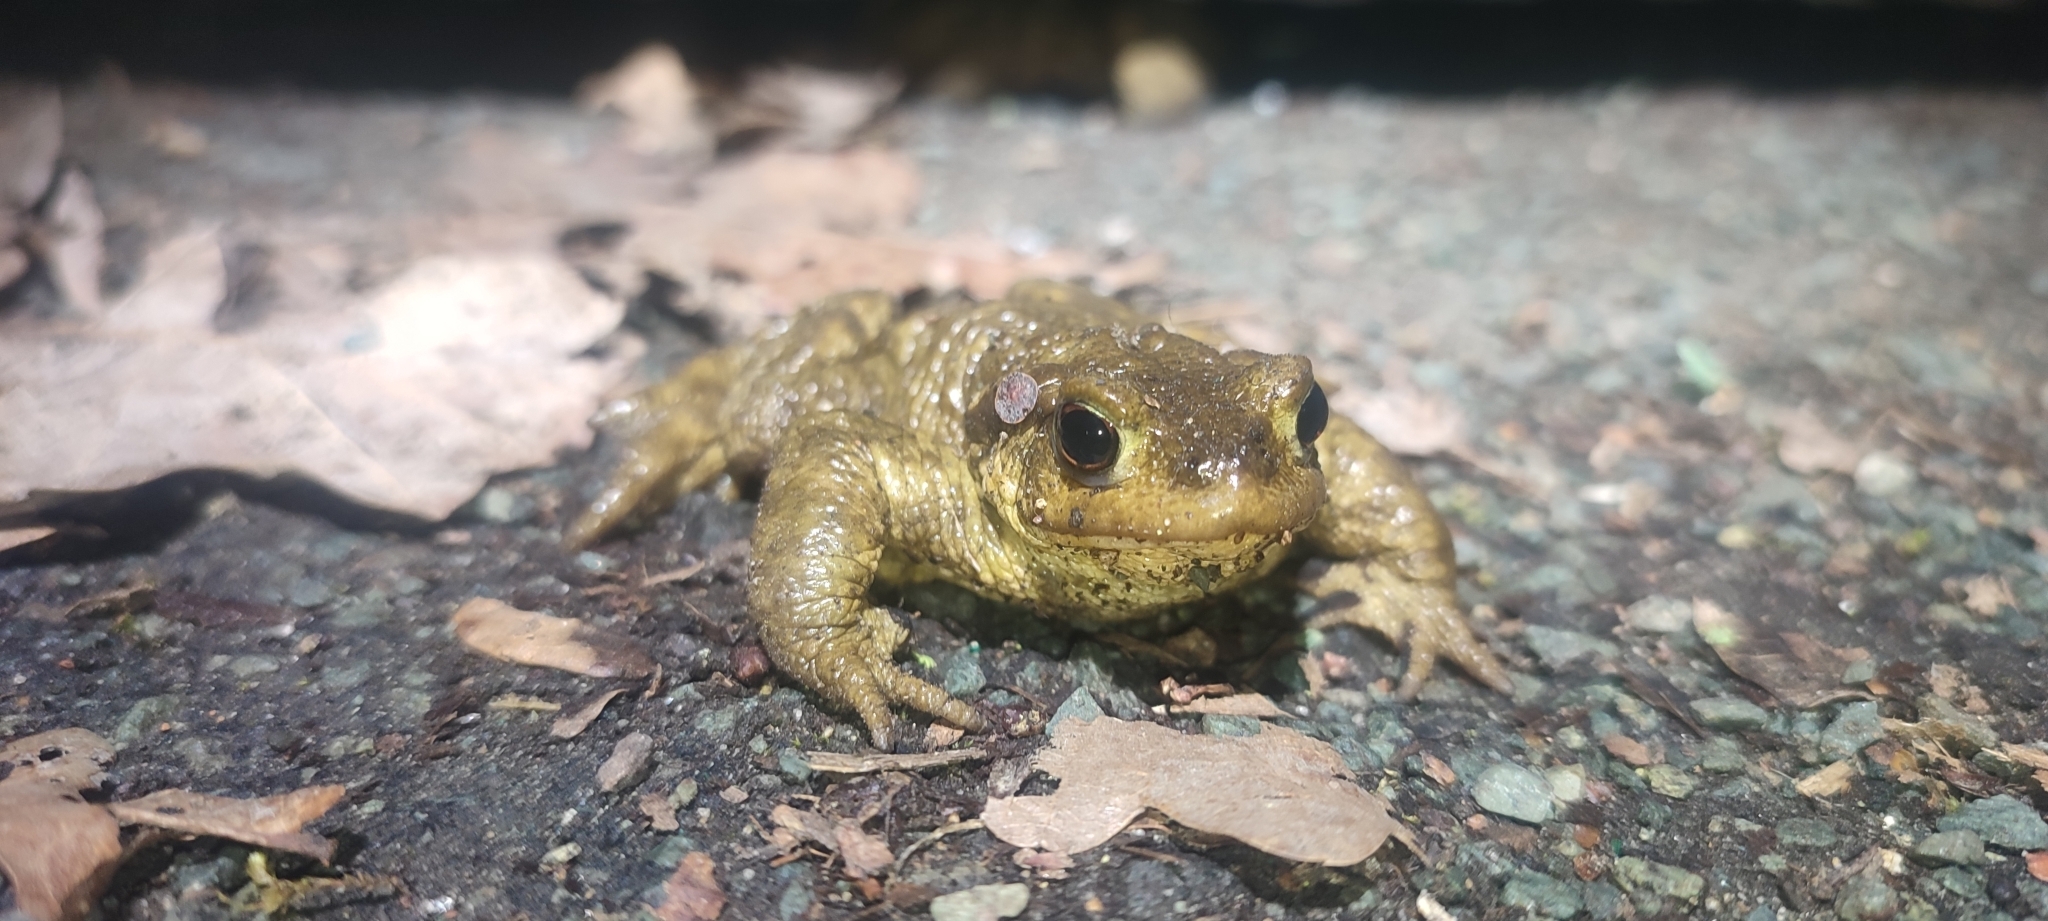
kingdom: Animalia
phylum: Chordata
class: Amphibia
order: Anura
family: Bufonidae
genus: Bufo
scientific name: Bufo spinosus
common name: Western common toad
